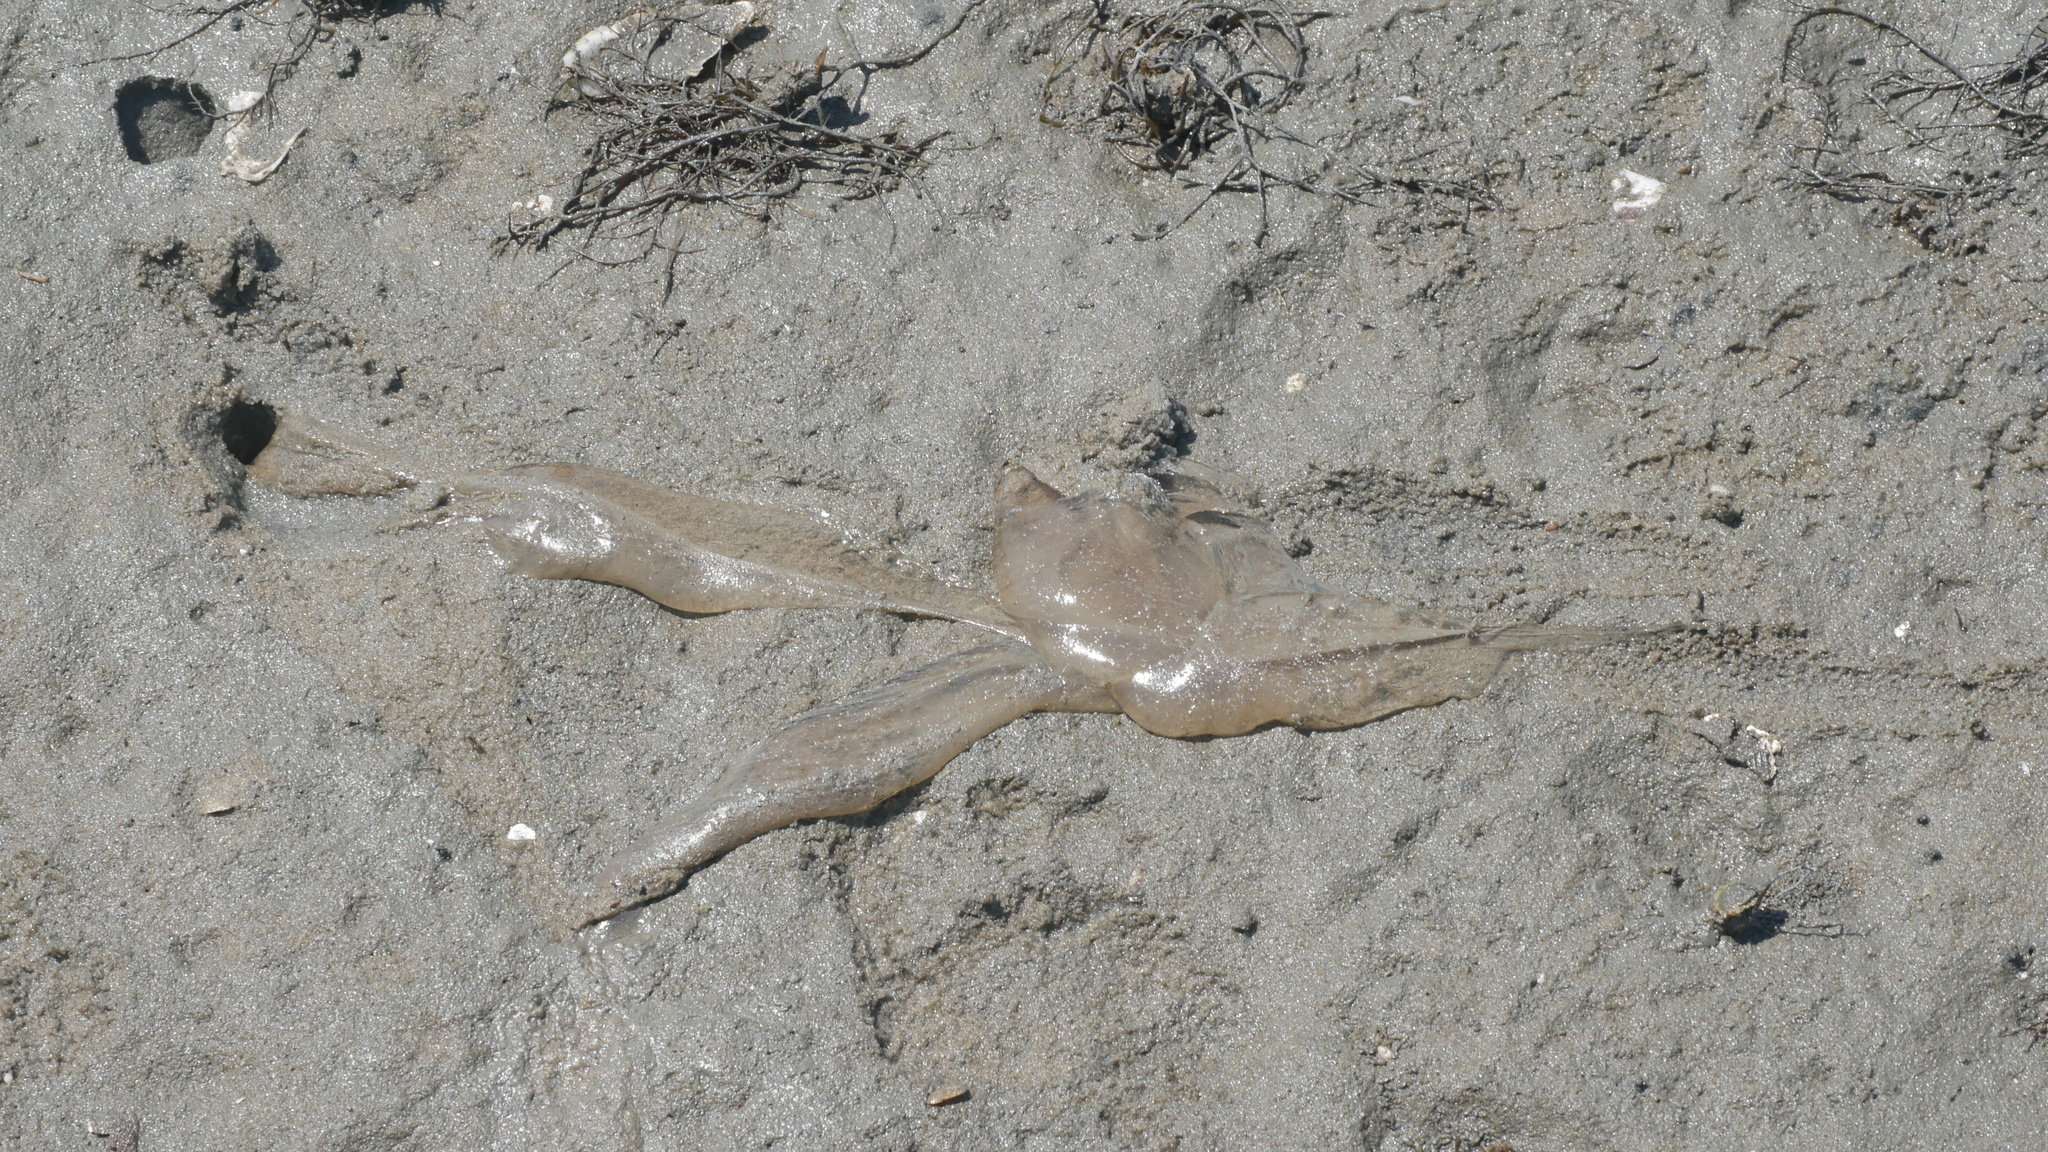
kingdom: Animalia
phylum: Arthropoda
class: Malacostraca
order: Decapoda
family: Ocypodidae
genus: Ocypode
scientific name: Ocypode quadrata
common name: Ghost crab
